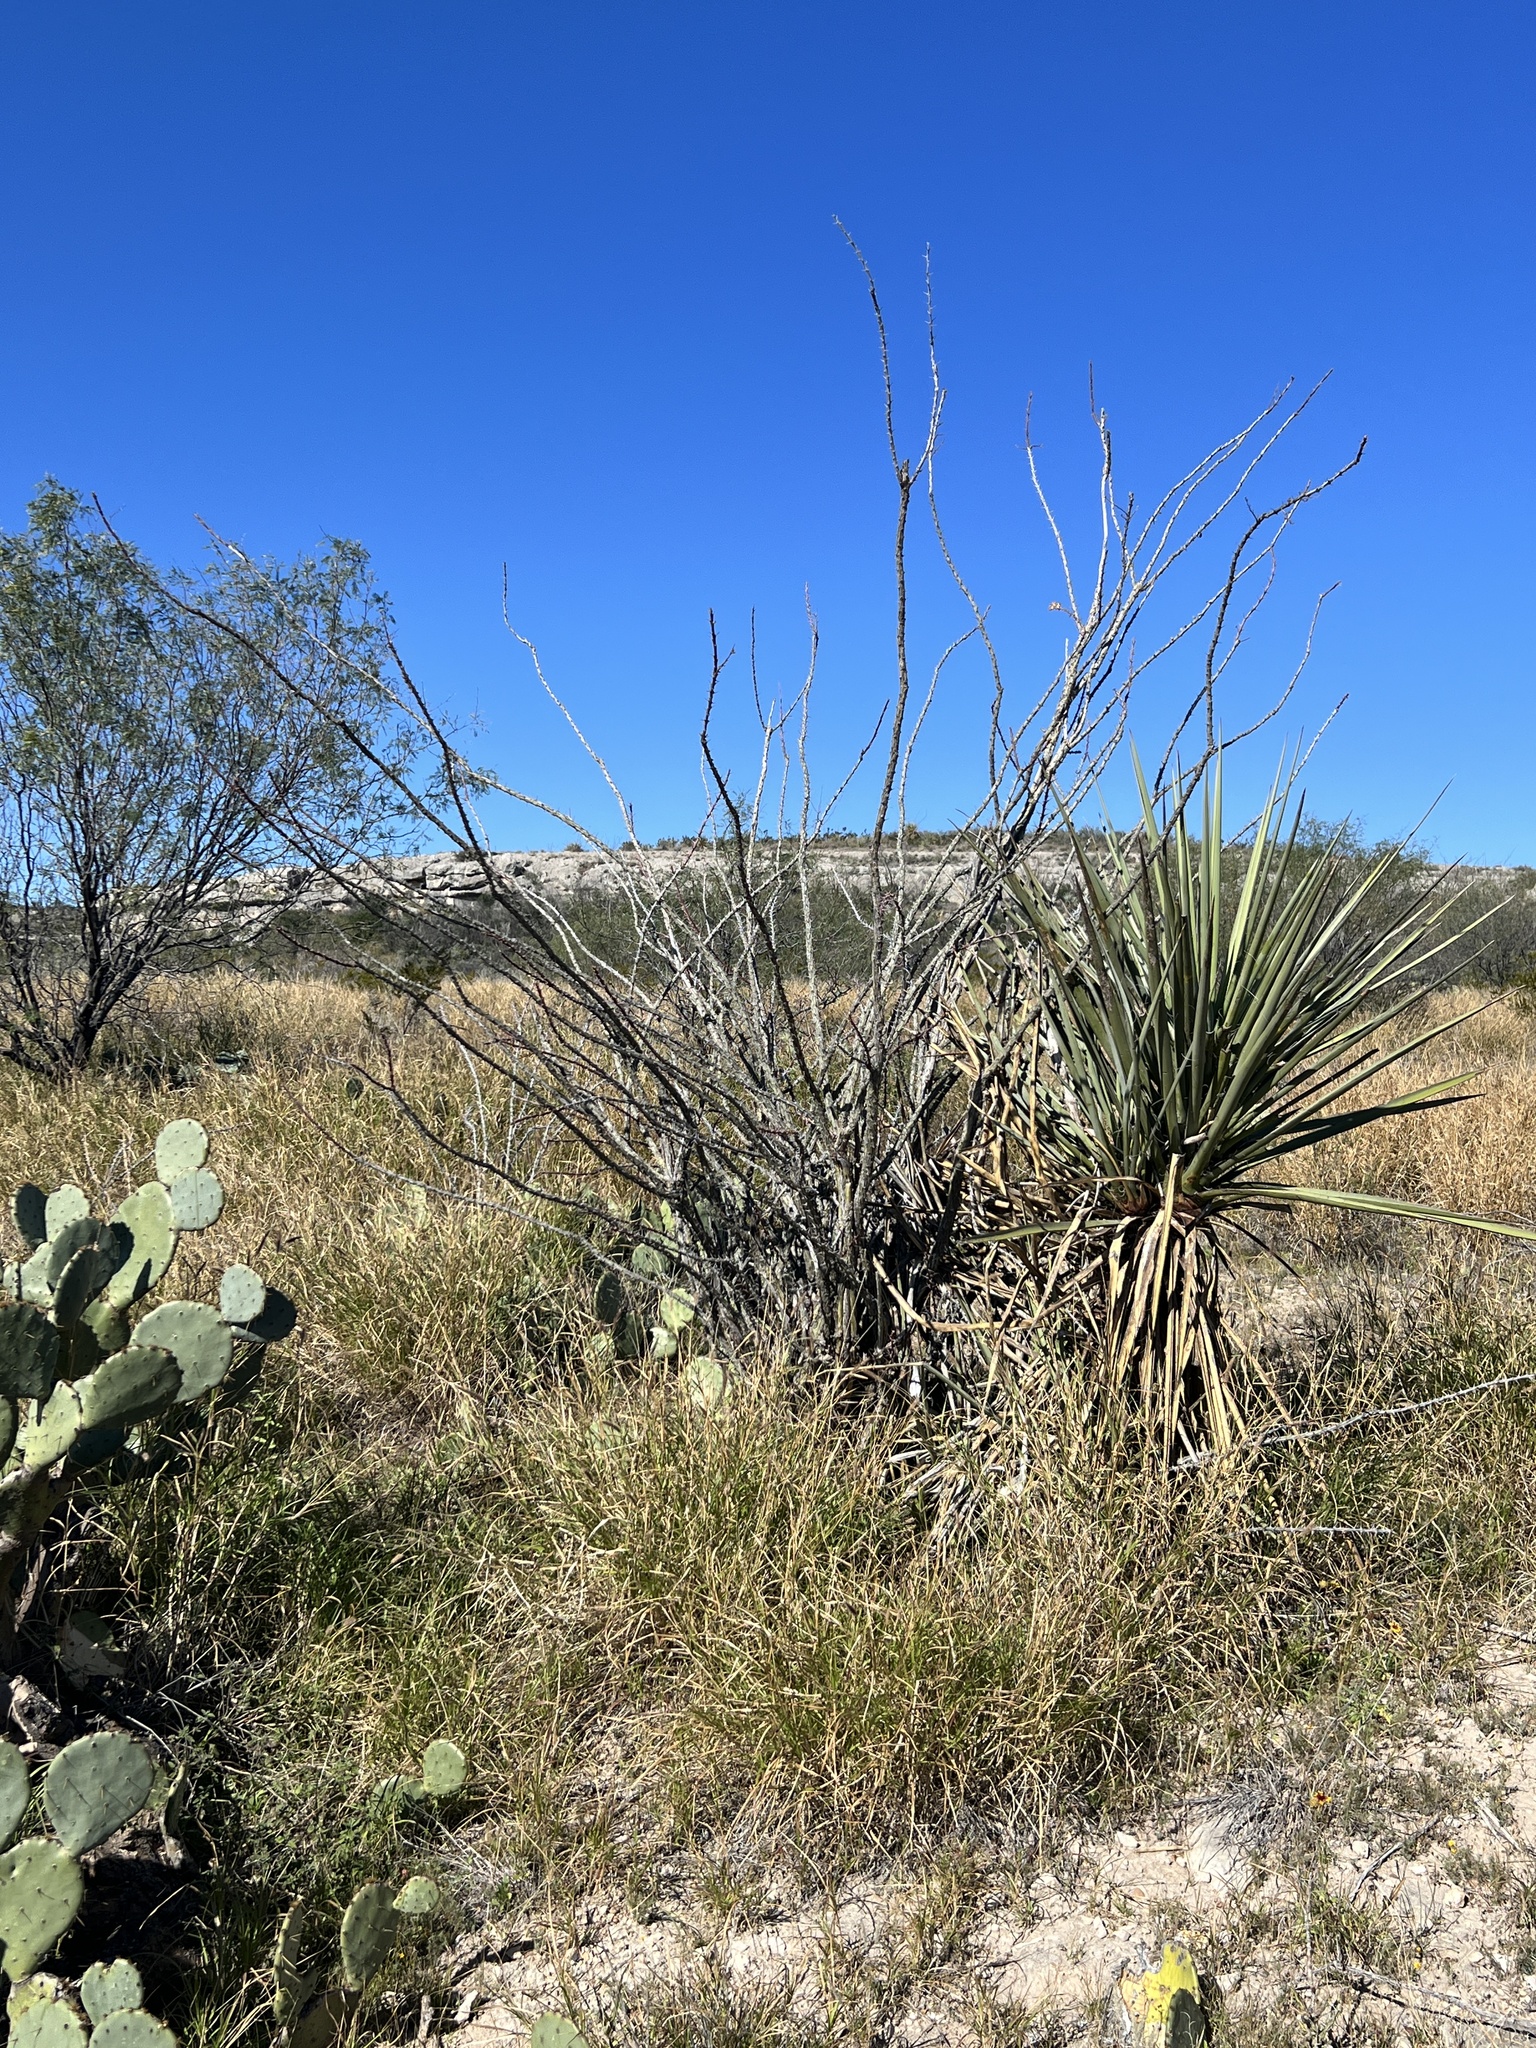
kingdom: Plantae
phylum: Tracheophyta
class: Magnoliopsida
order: Ericales
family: Fouquieriaceae
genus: Fouquieria
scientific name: Fouquieria splendens
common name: Vine-cactus
